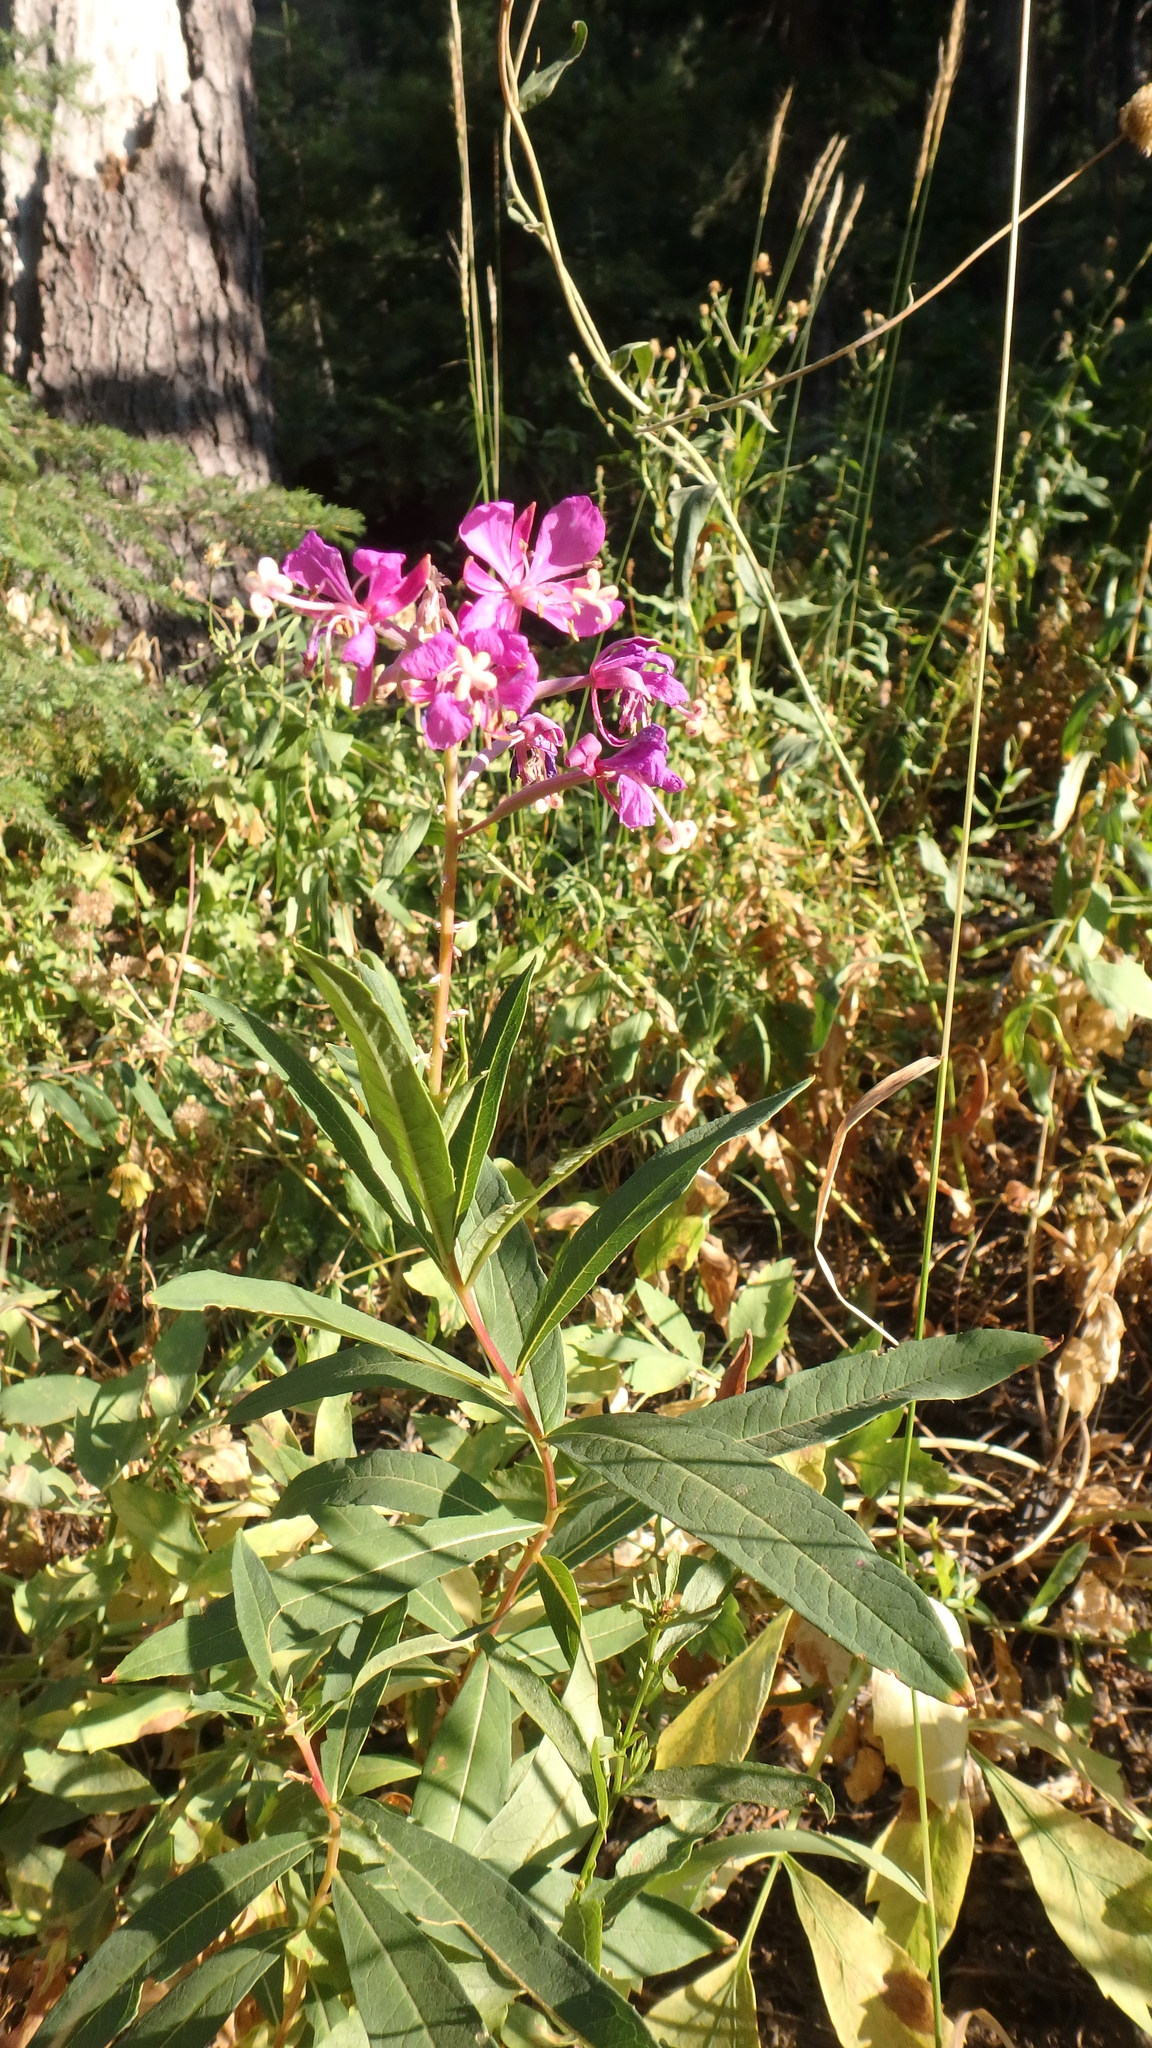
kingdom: Plantae
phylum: Tracheophyta
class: Magnoliopsida
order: Myrtales
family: Onagraceae
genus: Chamaenerion
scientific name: Chamaenerion angustifolium
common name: Fireweed
